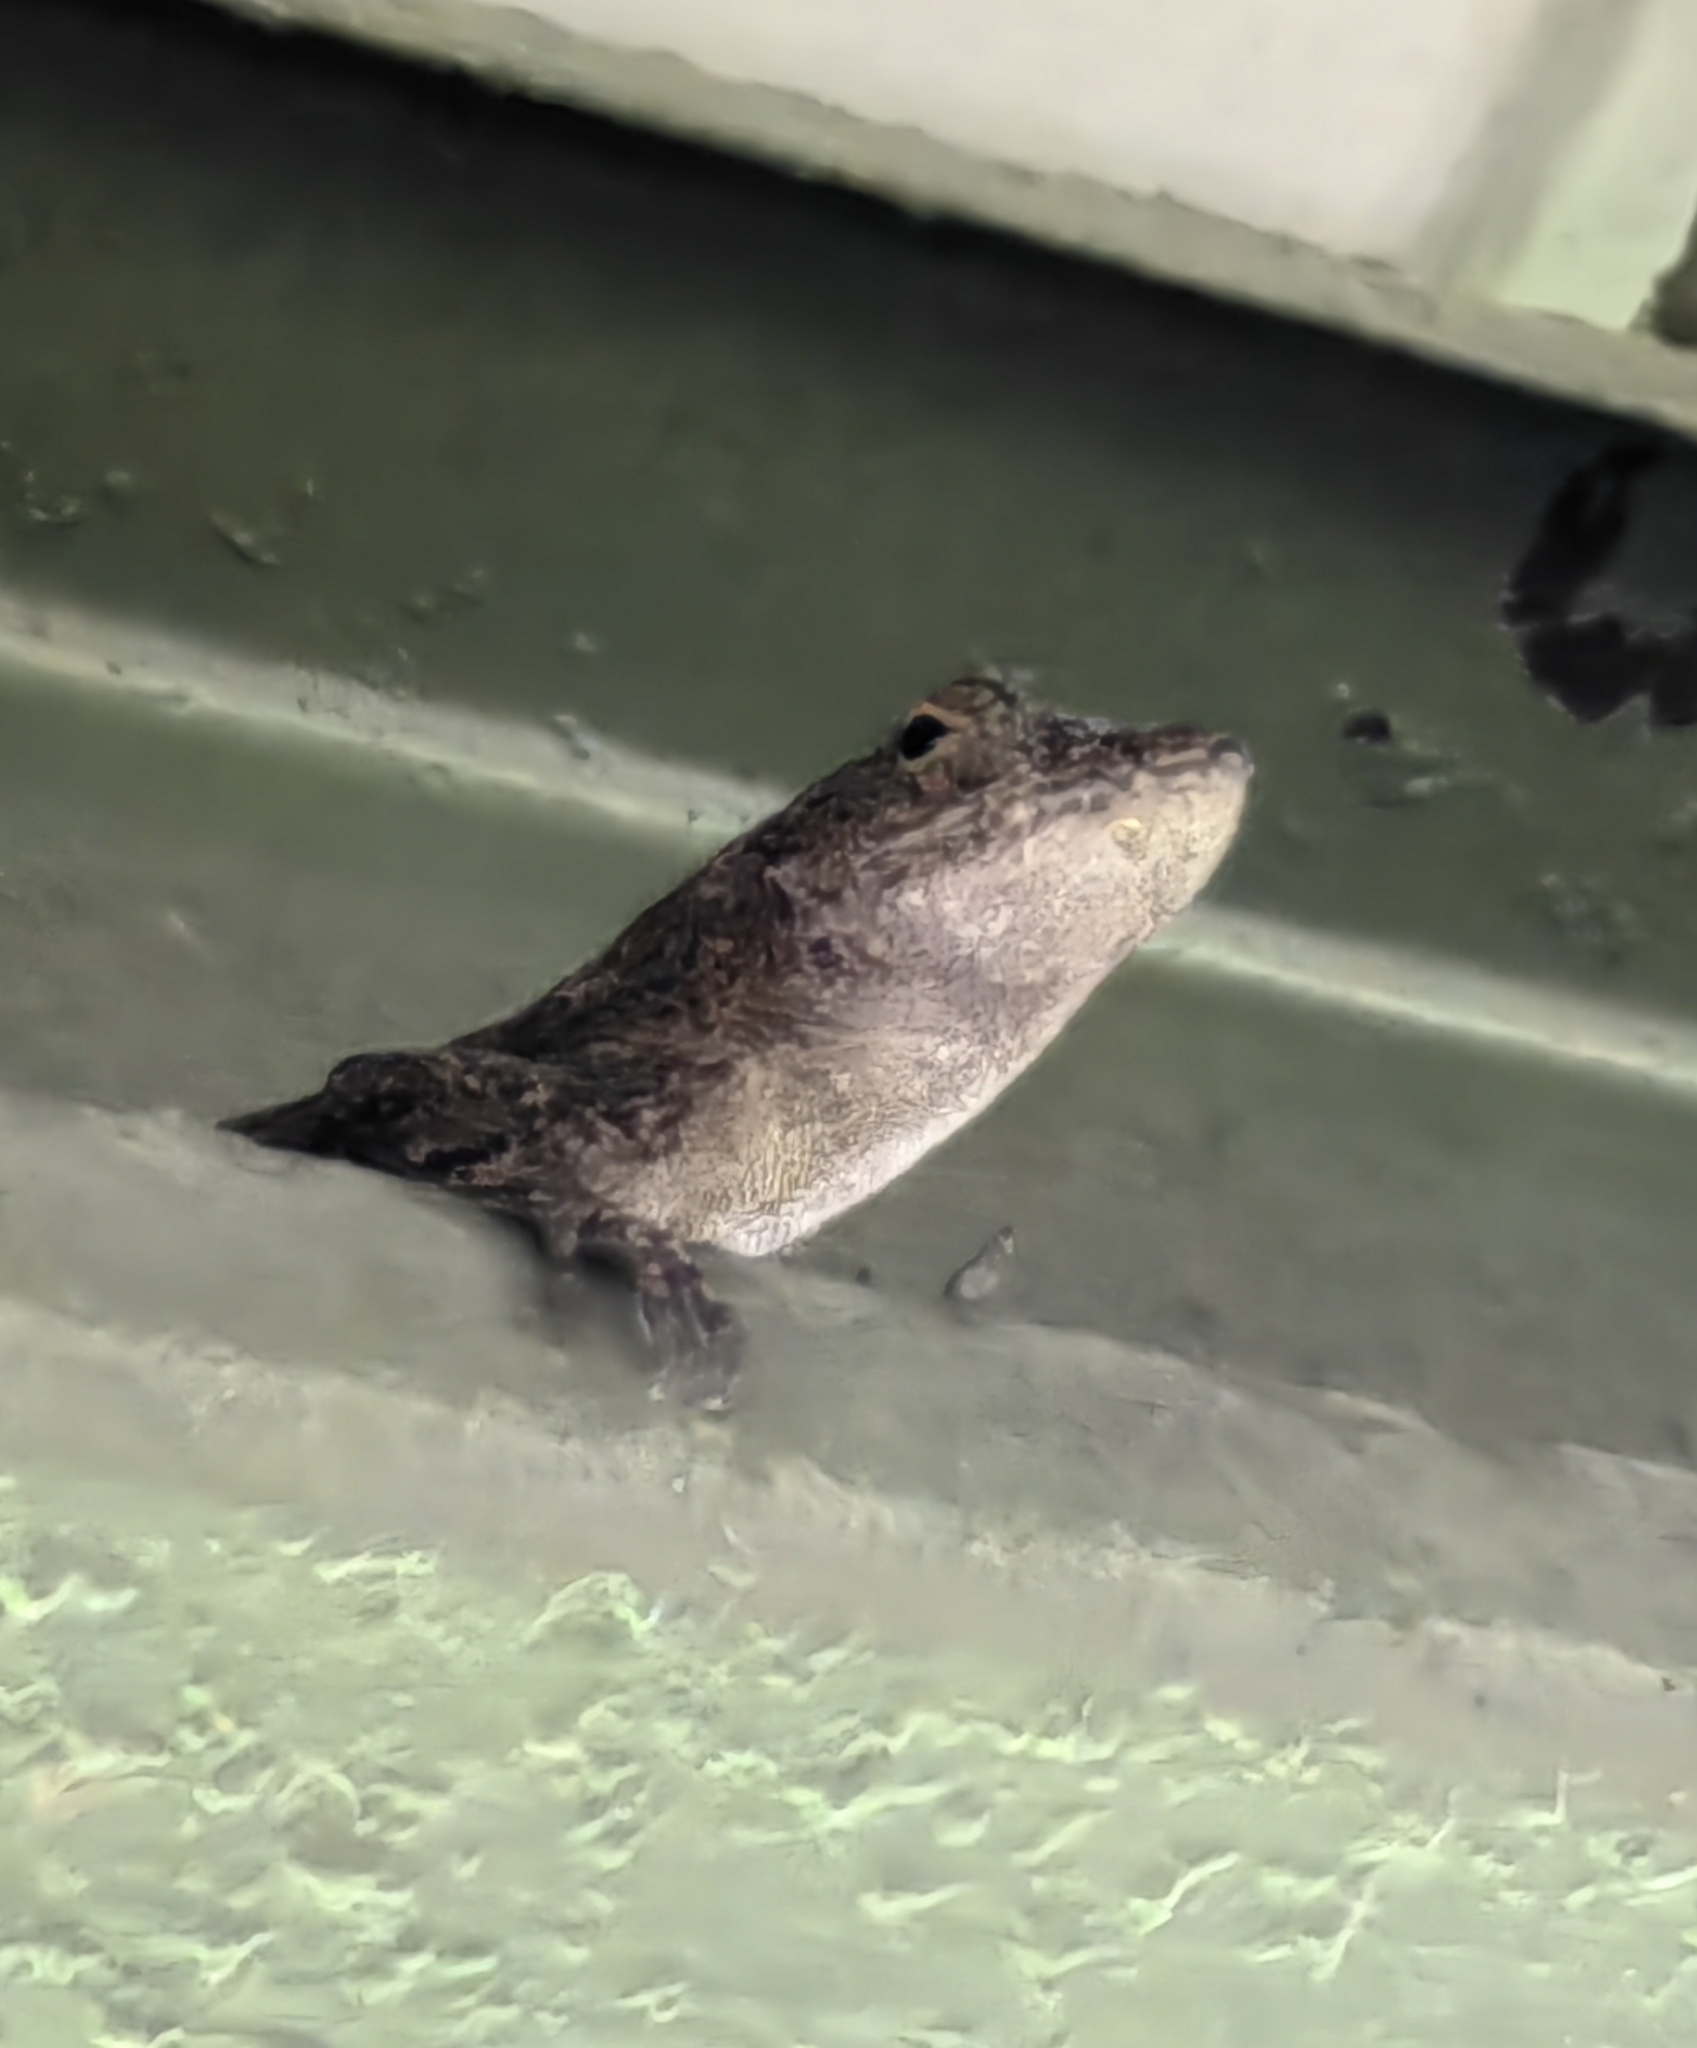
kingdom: Animalia
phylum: Chordata
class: Squamata
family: Dactyloidae
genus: Anolis
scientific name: Anolis cristatellus
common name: Crested anole
